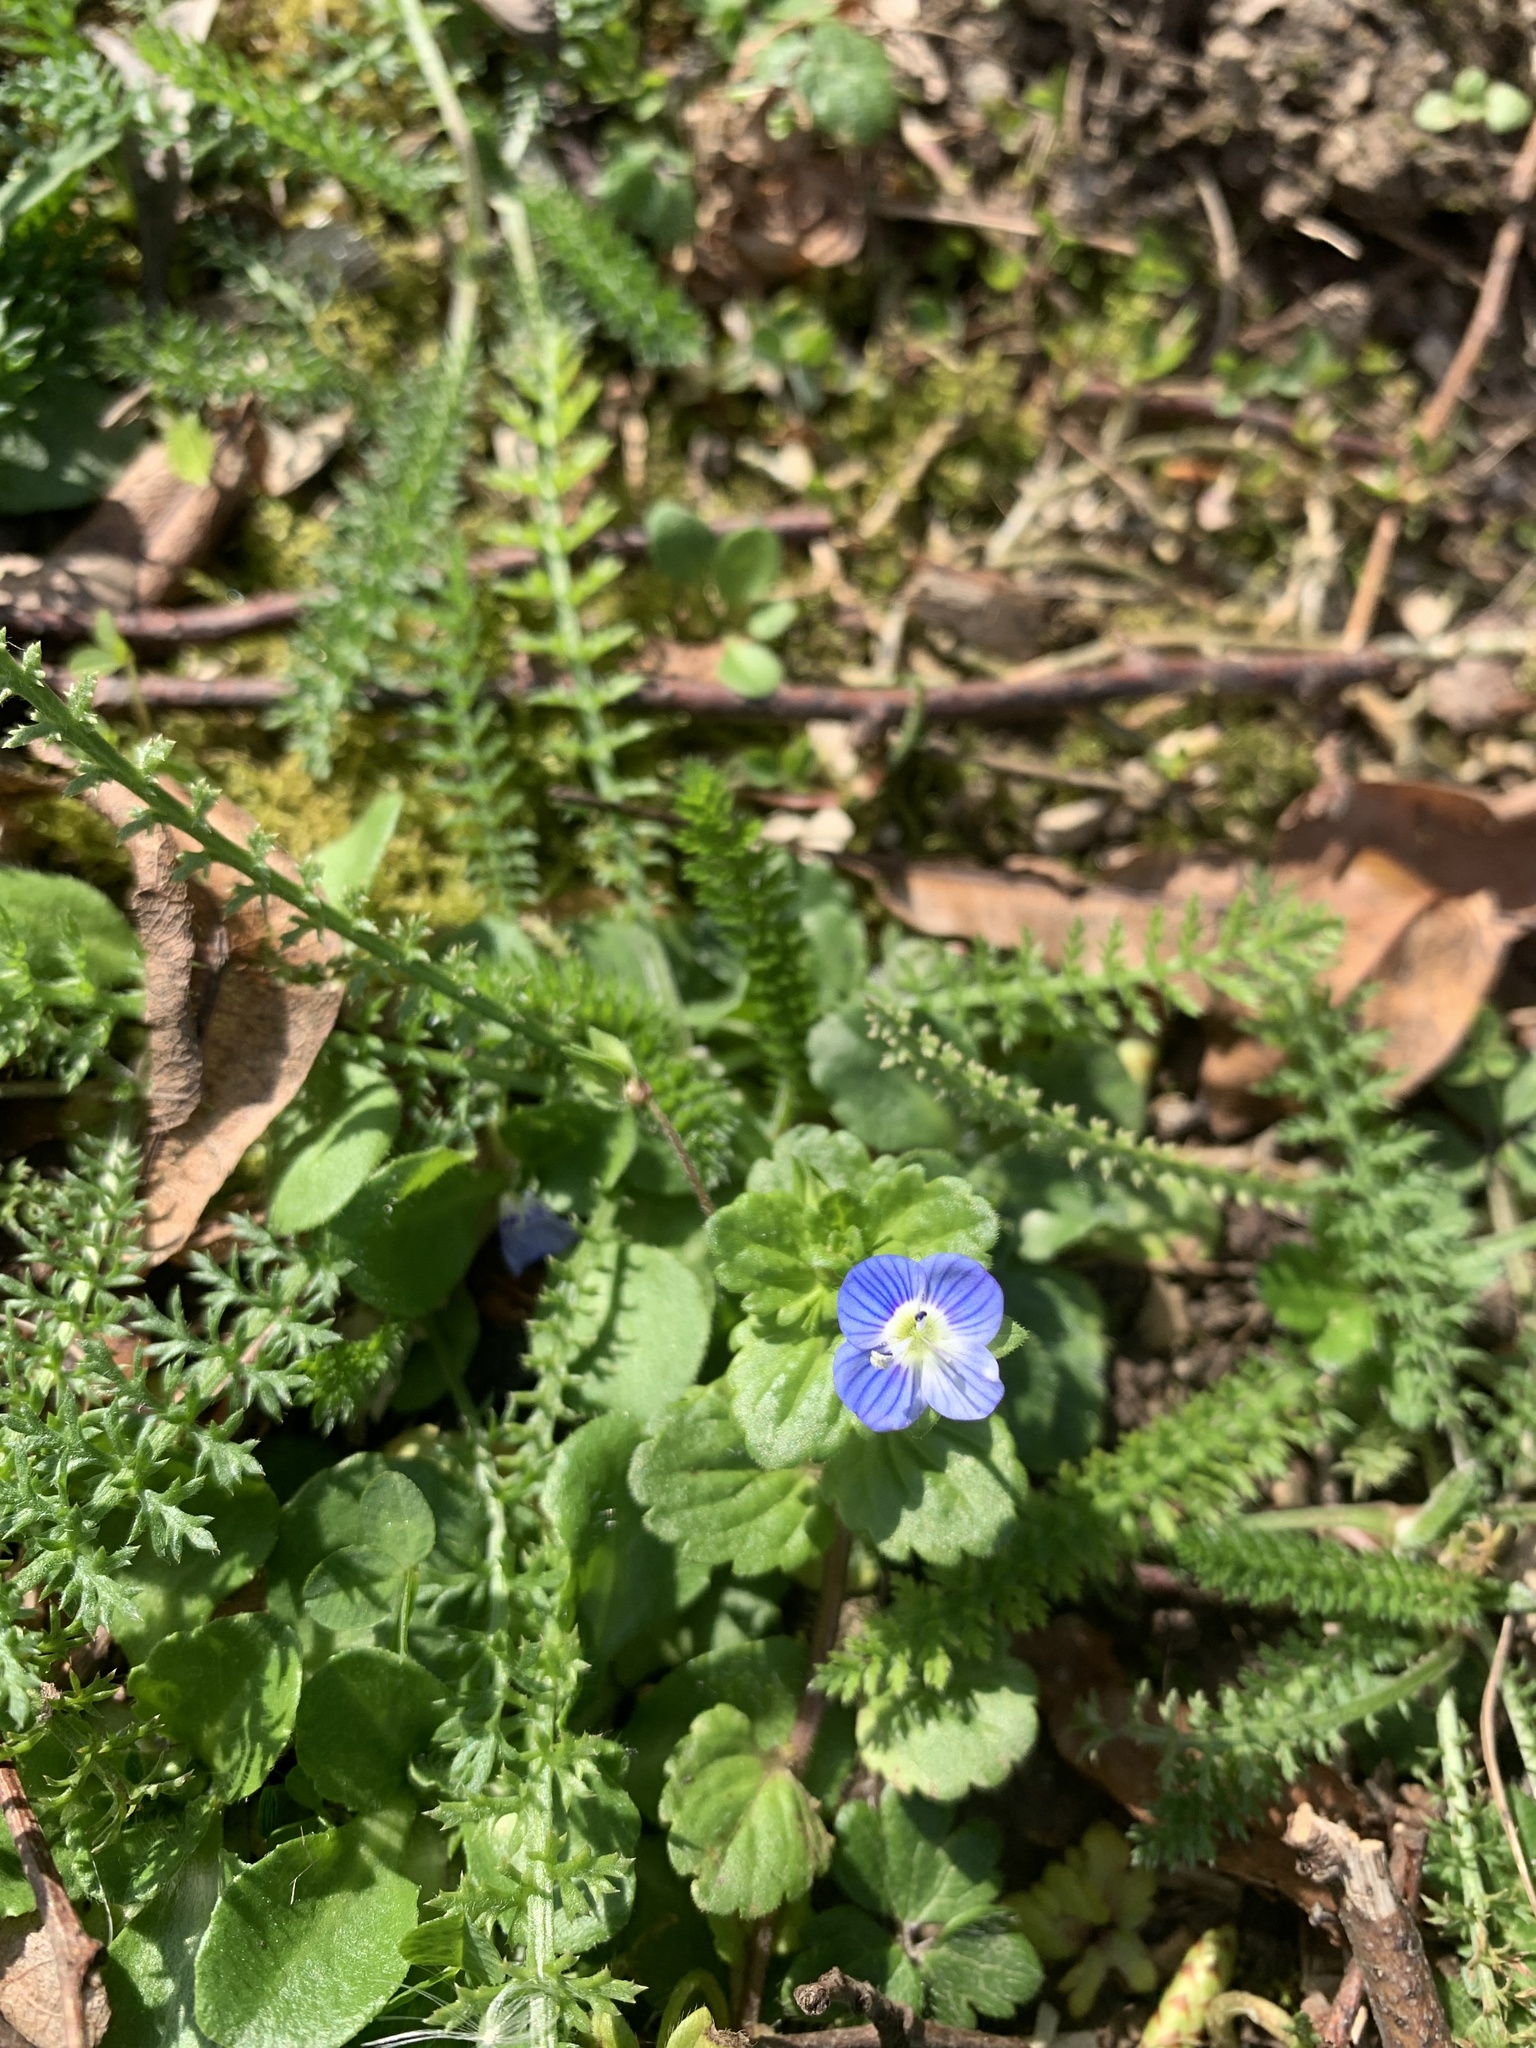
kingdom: Plantae
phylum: Tracheophyta
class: Magnoliopsida
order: Lamiales
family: Plantaginaceae
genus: Veronica
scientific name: Veronica persica
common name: Common field-speedwell
